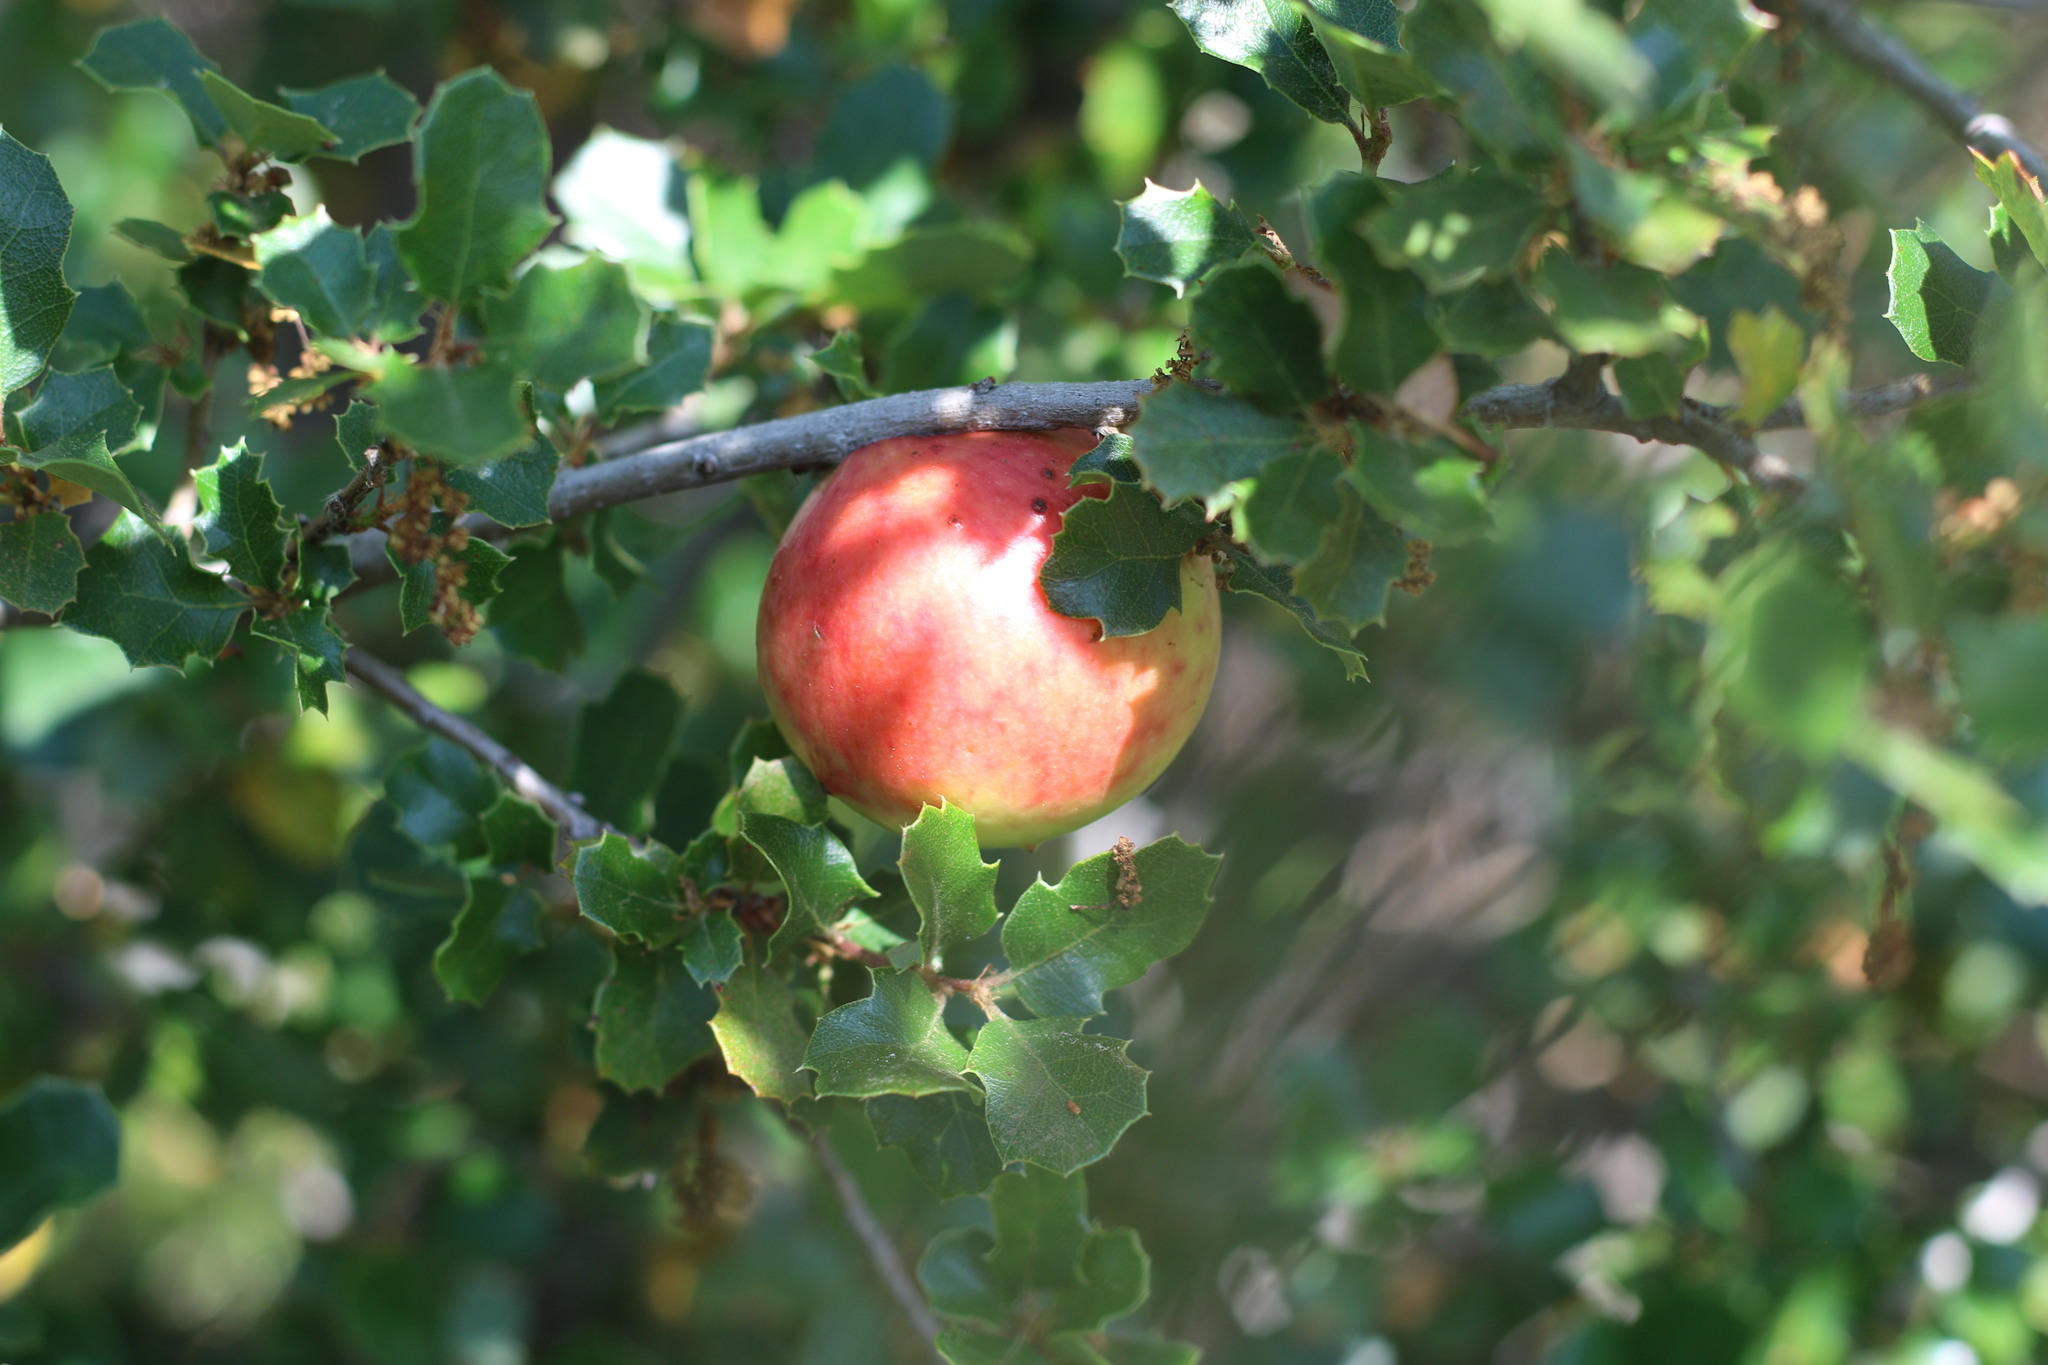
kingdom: Animalia
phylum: Arthropoda
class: Insecta
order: Hymenoptera
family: Cynipidae
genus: Andricus
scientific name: Andricus quercuscalifornicus
